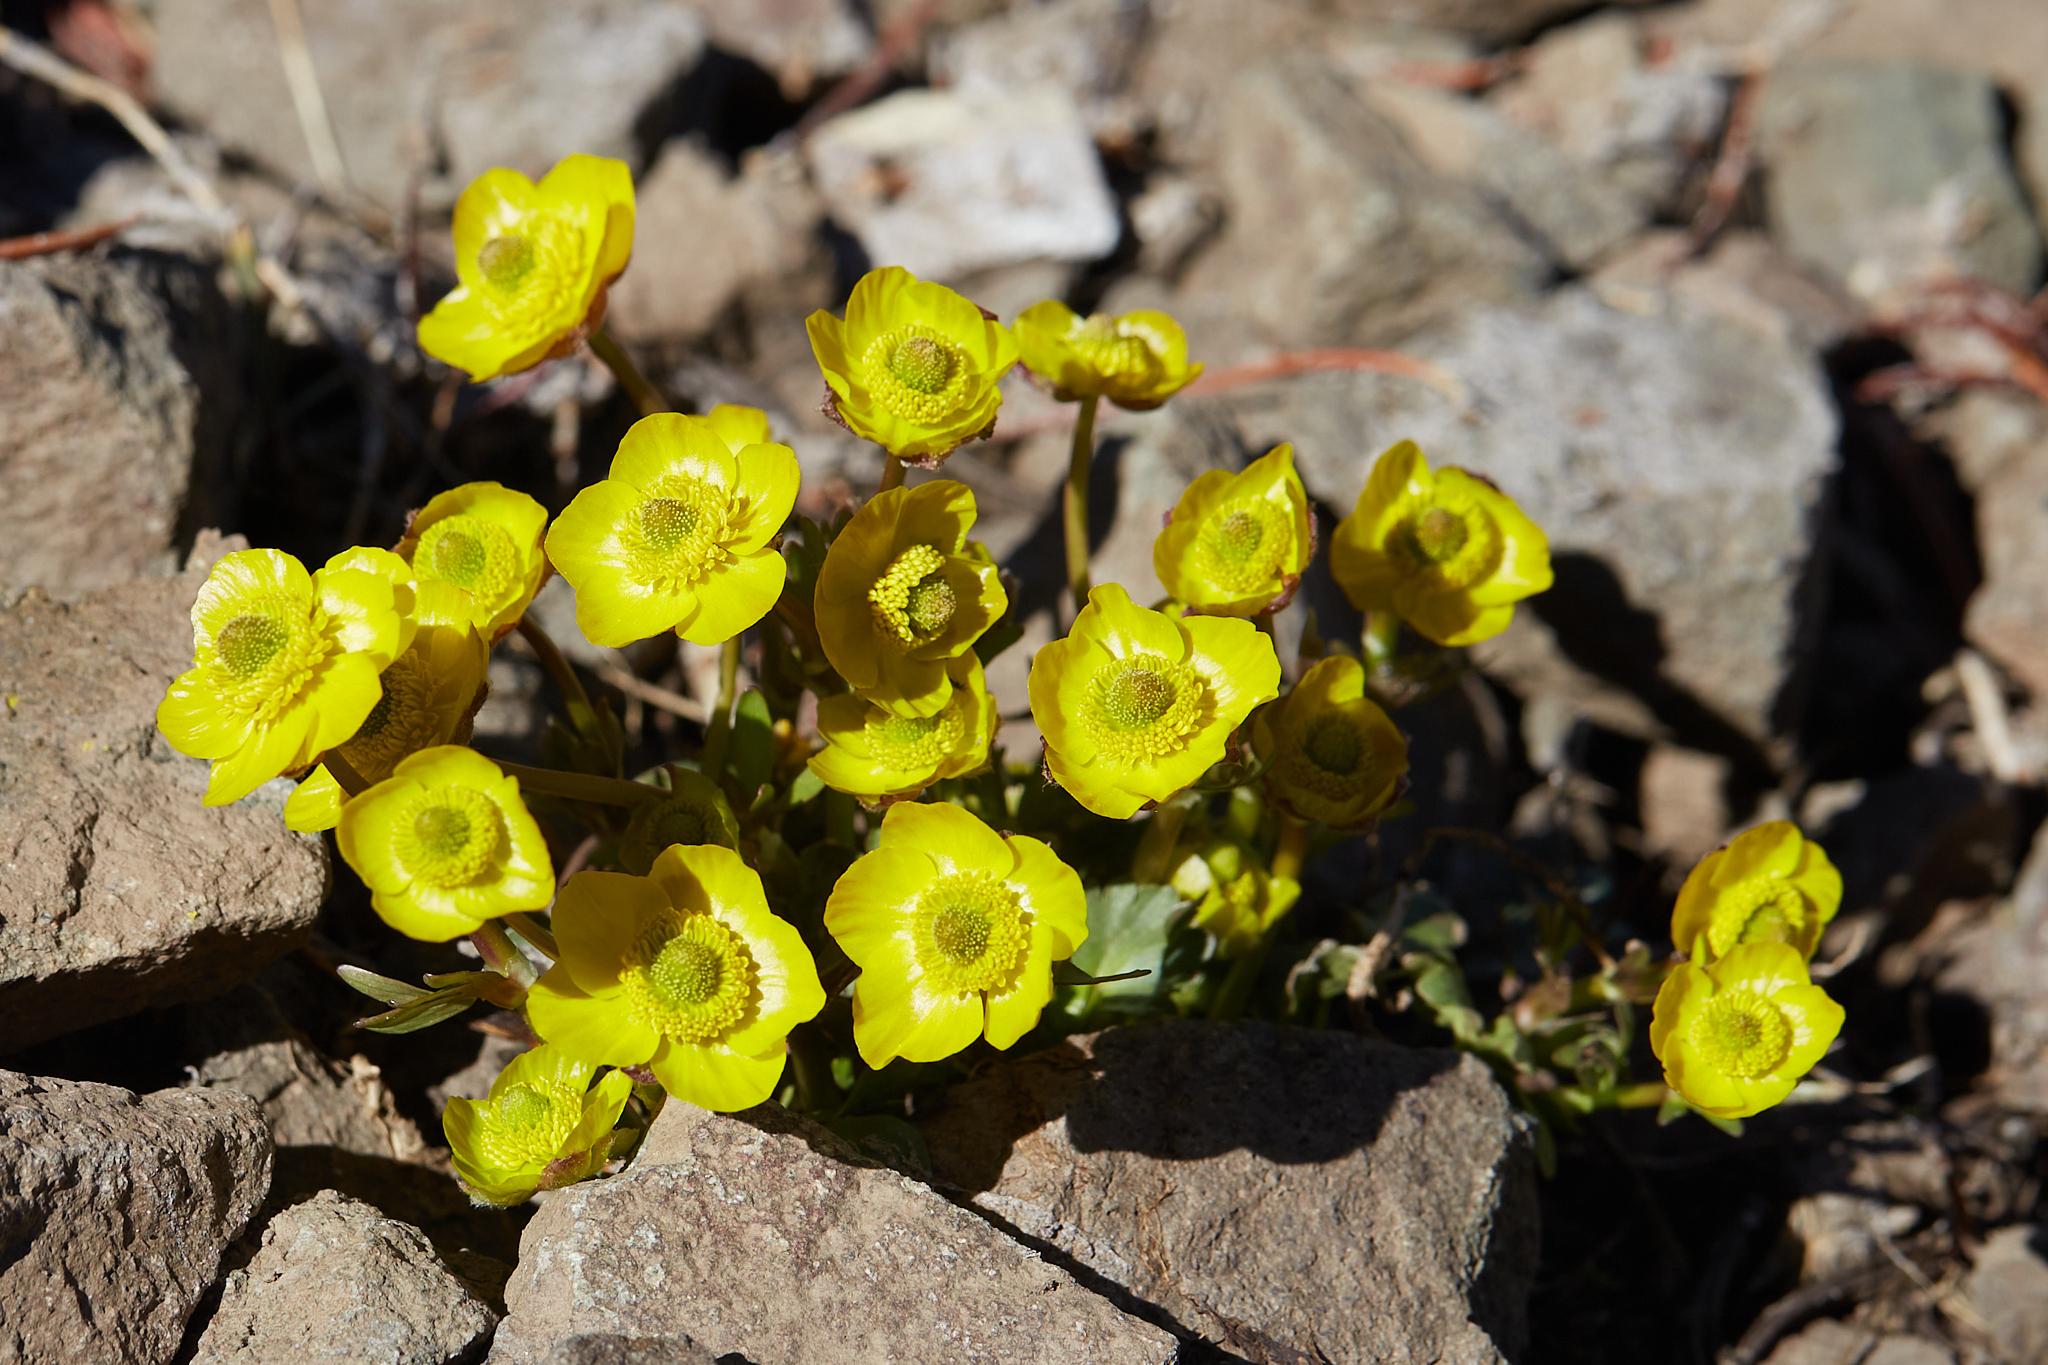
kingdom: Plantae
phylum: Tracheophyta
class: Magnoliopsida
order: Ranunculales
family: Ranunculaceae
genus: Ranunculus
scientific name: Ranunculus eschscholtzii
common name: Eschscholtz's buttercup
